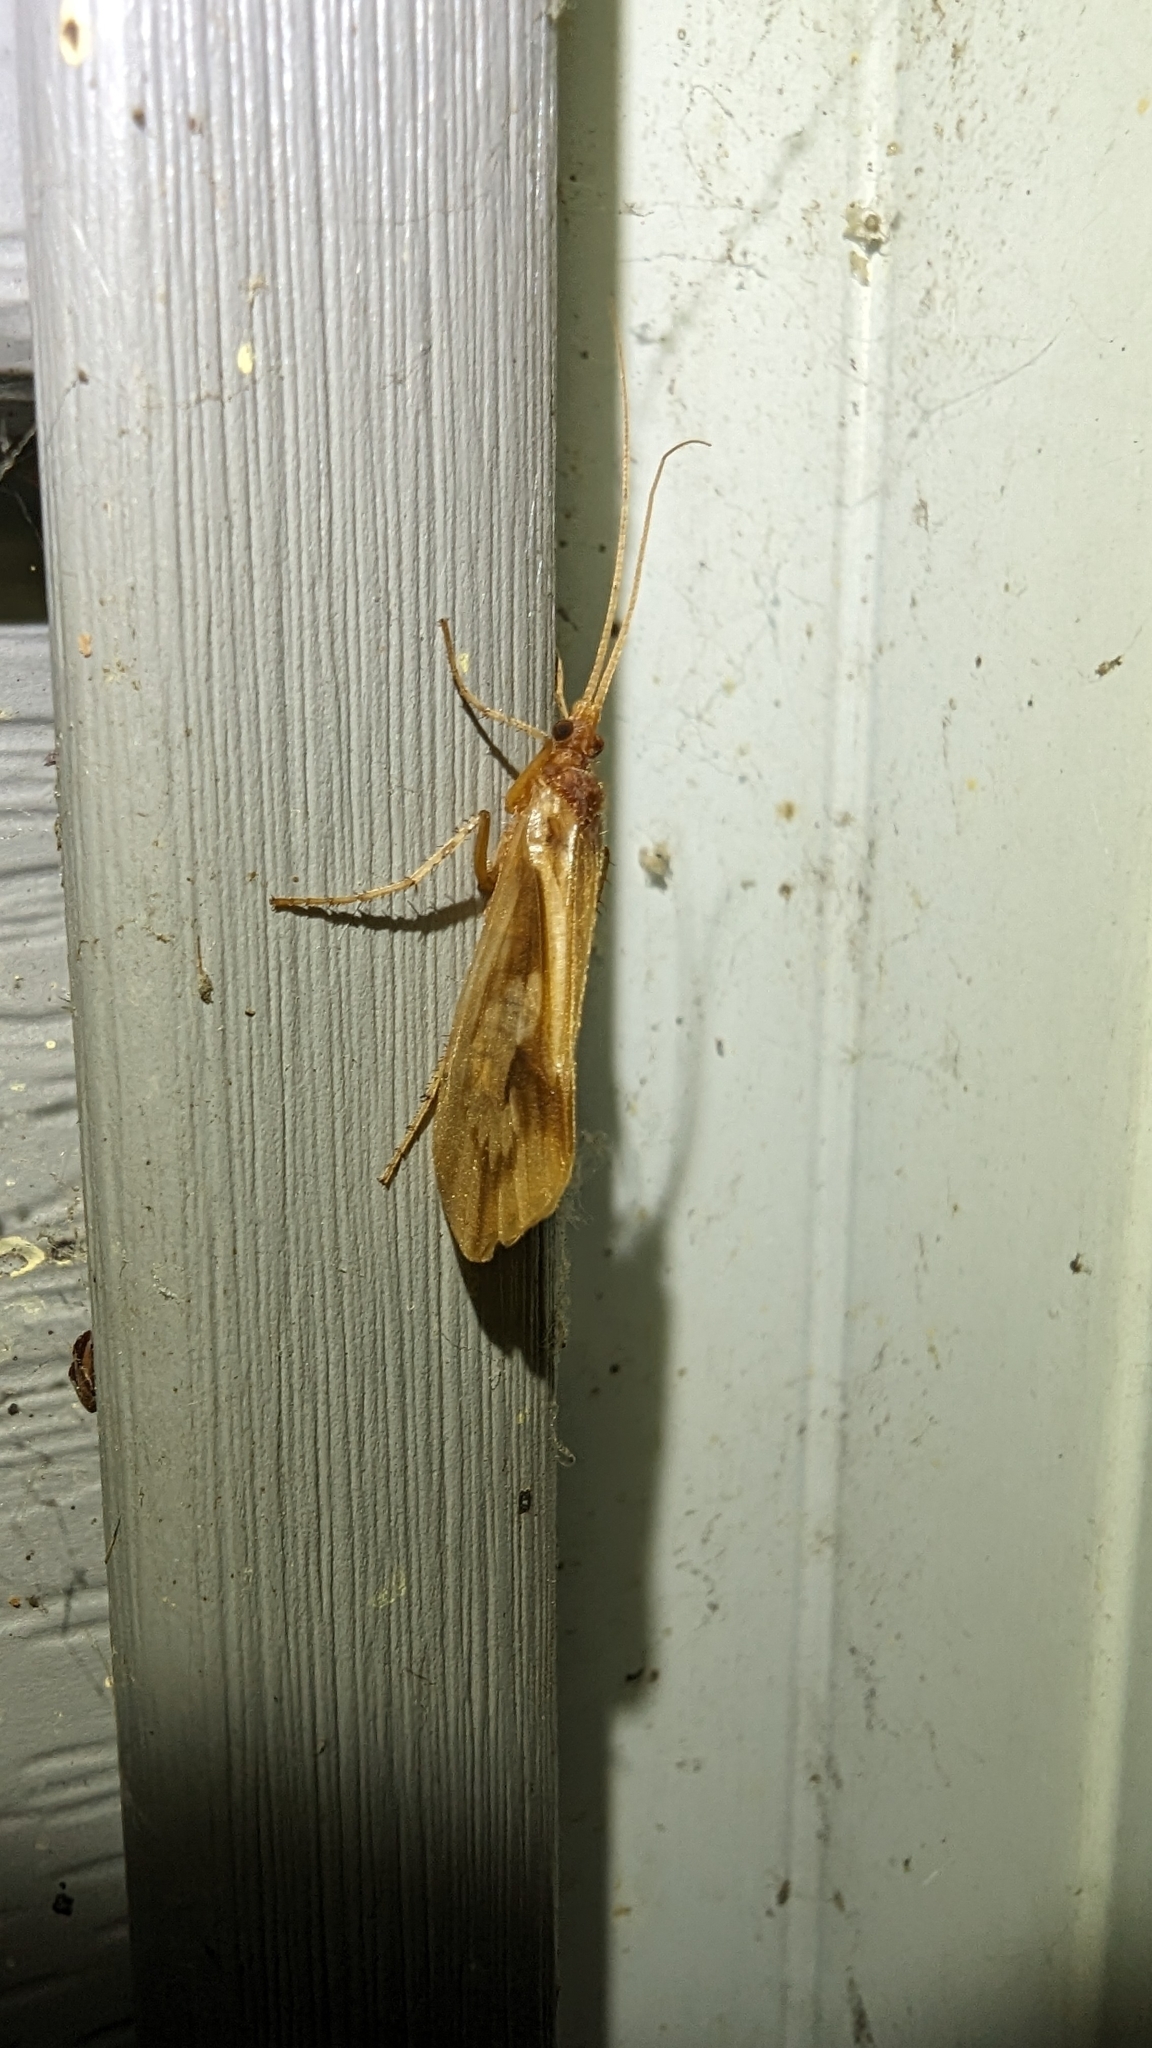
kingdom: Animalia
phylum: Arthropoda
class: Insecta
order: Trichoptera
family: Limnephilidae
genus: Platycentropus
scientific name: Platycentropus radiatus
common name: Chocolate-and-cream sedge
